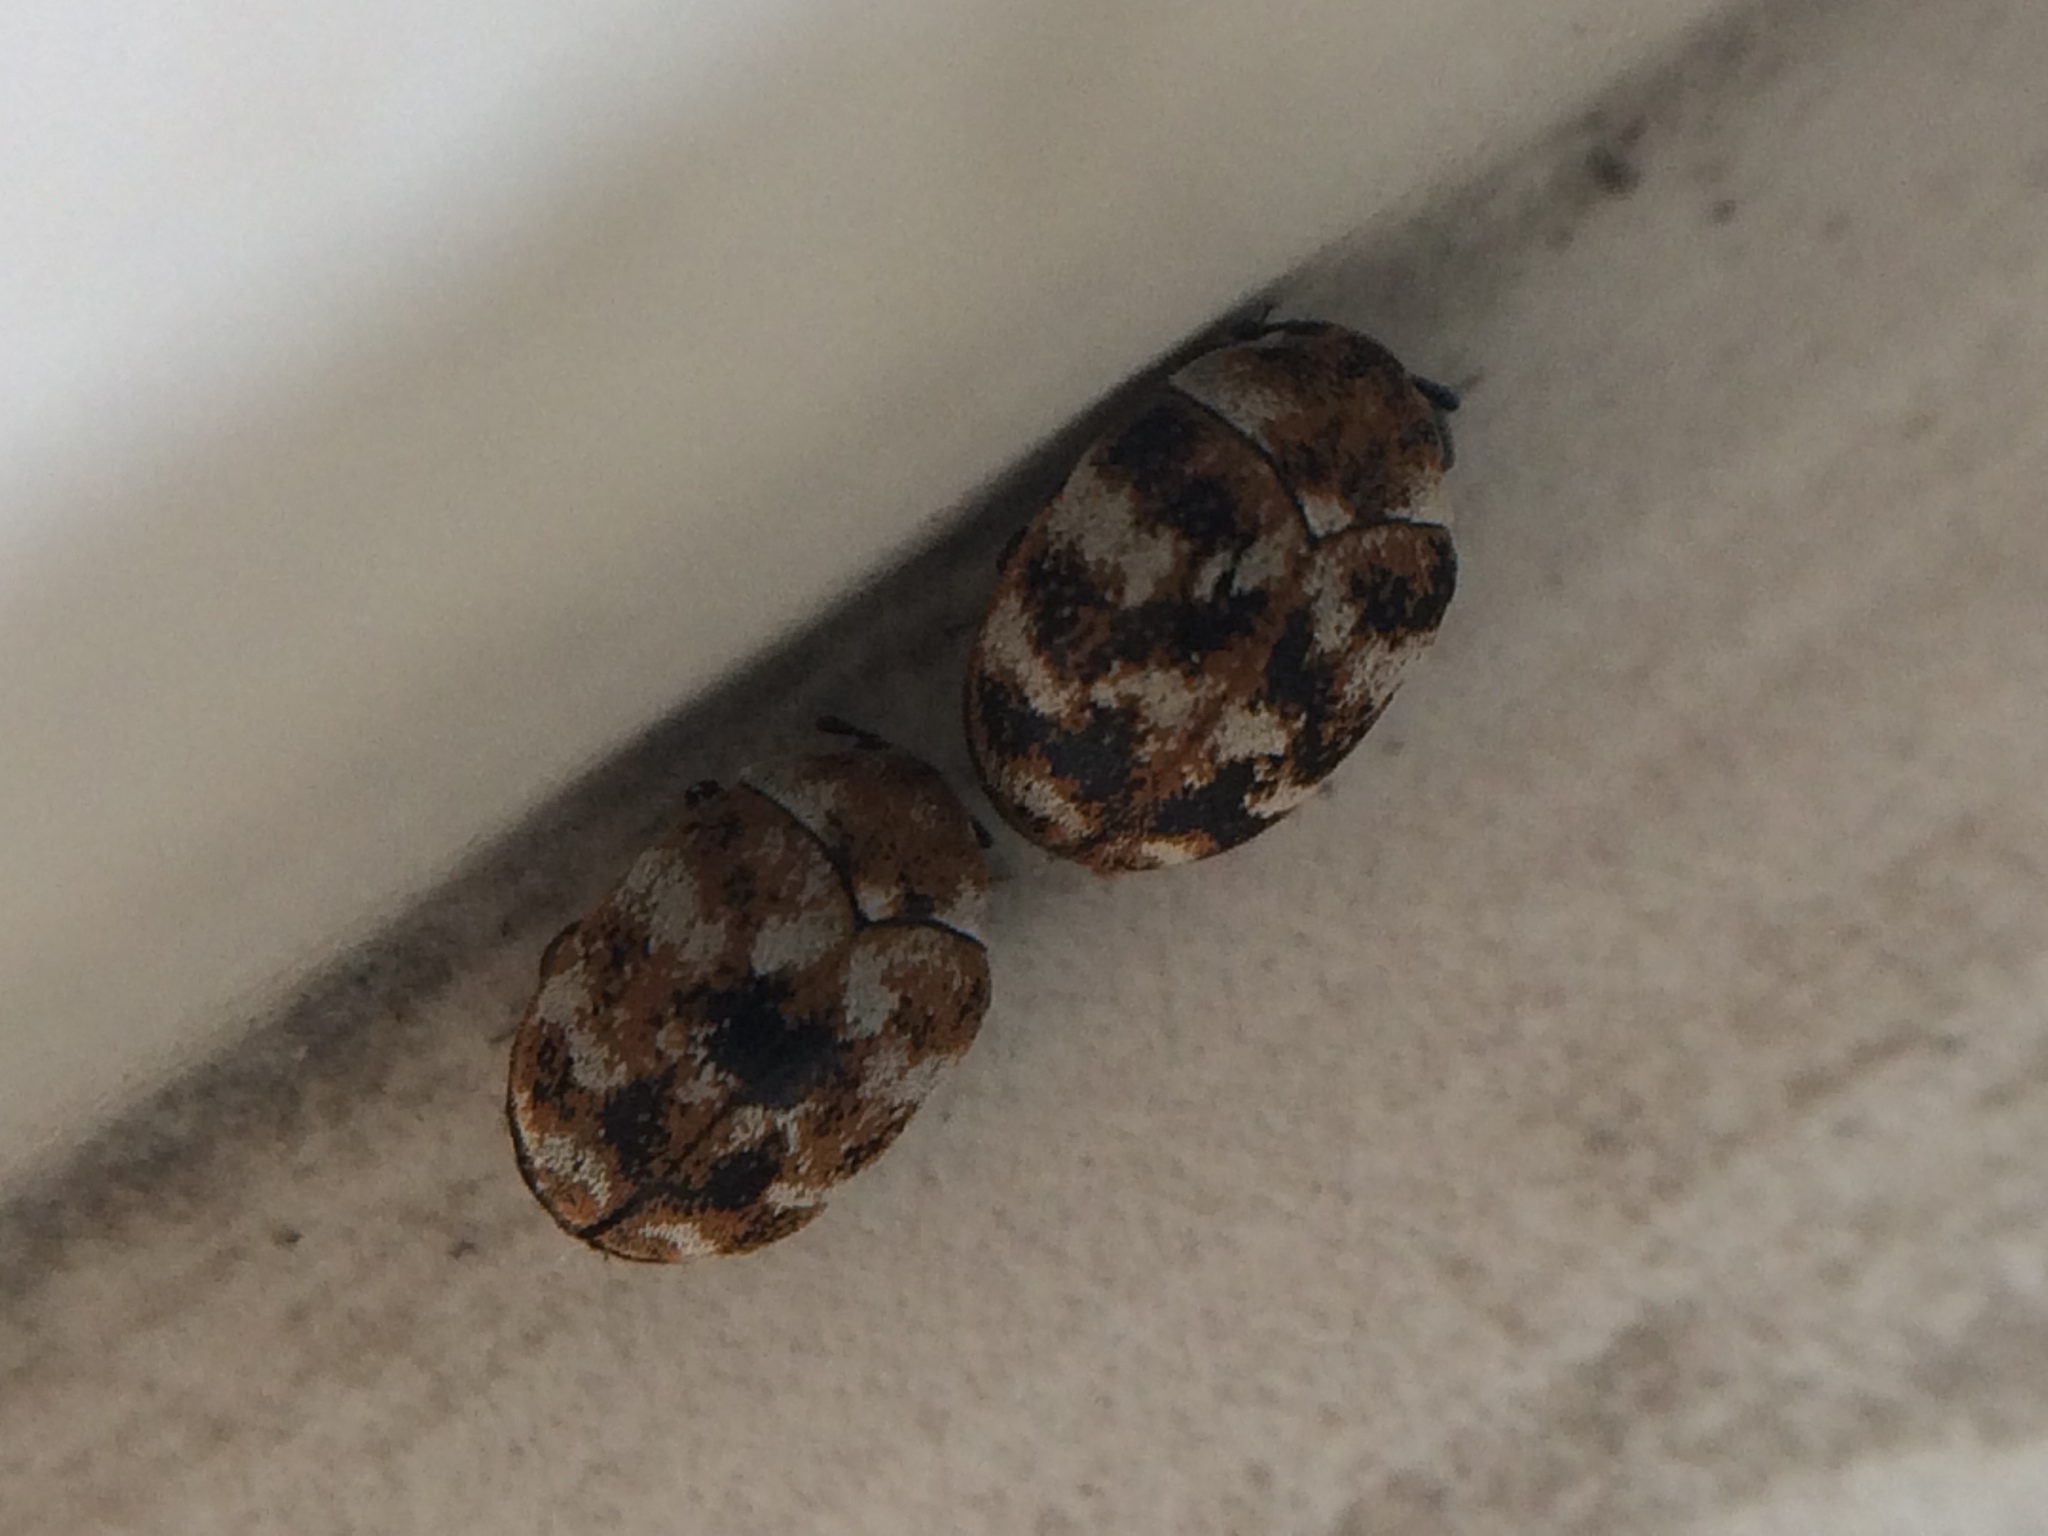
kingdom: Animalia
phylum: Arthropoda
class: Insecta
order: Coleoptera
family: Dermestidae
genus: Anthrenus
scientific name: Anthrenus verbasci
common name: Varied carpet beetle
